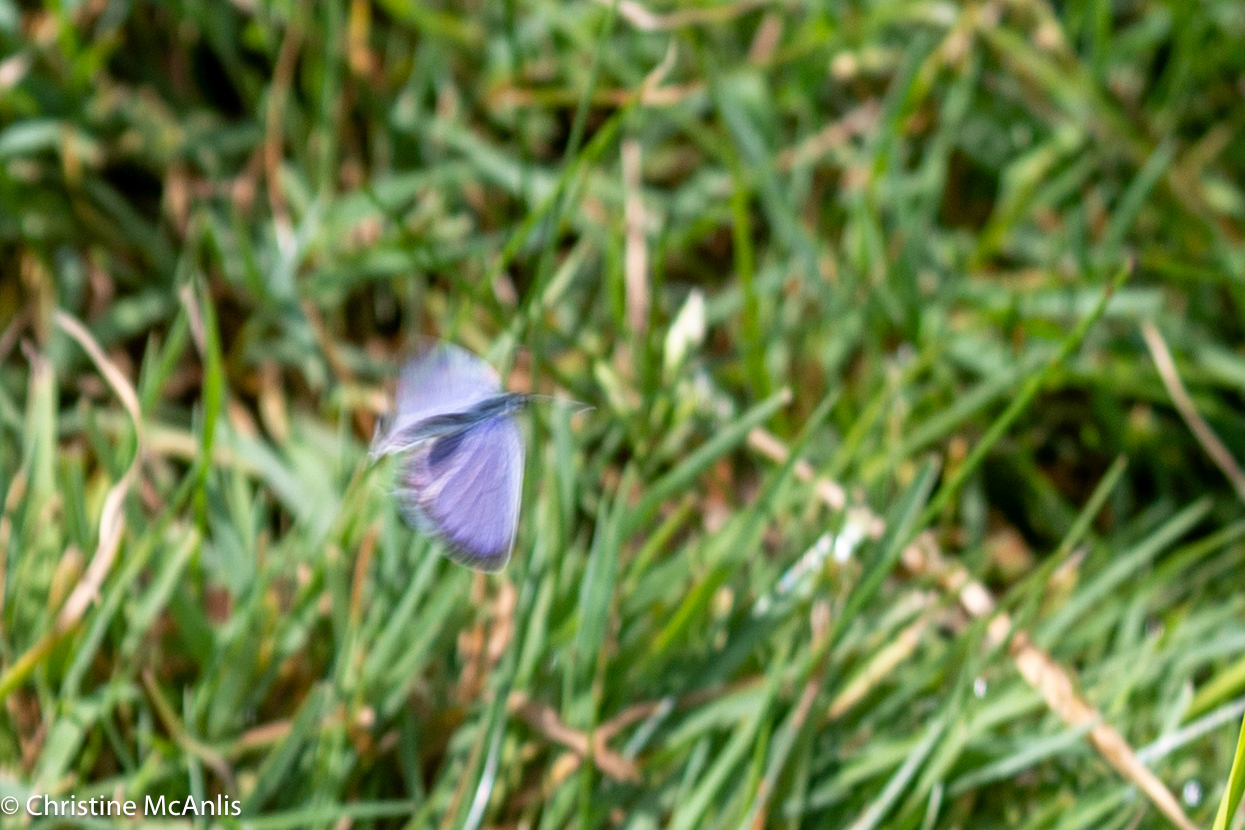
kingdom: Animalia
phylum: Arthropoda
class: Insecta
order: Lepidoptera
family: Lycaenidae
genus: Elkalyce
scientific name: Elkalyce comyntas
